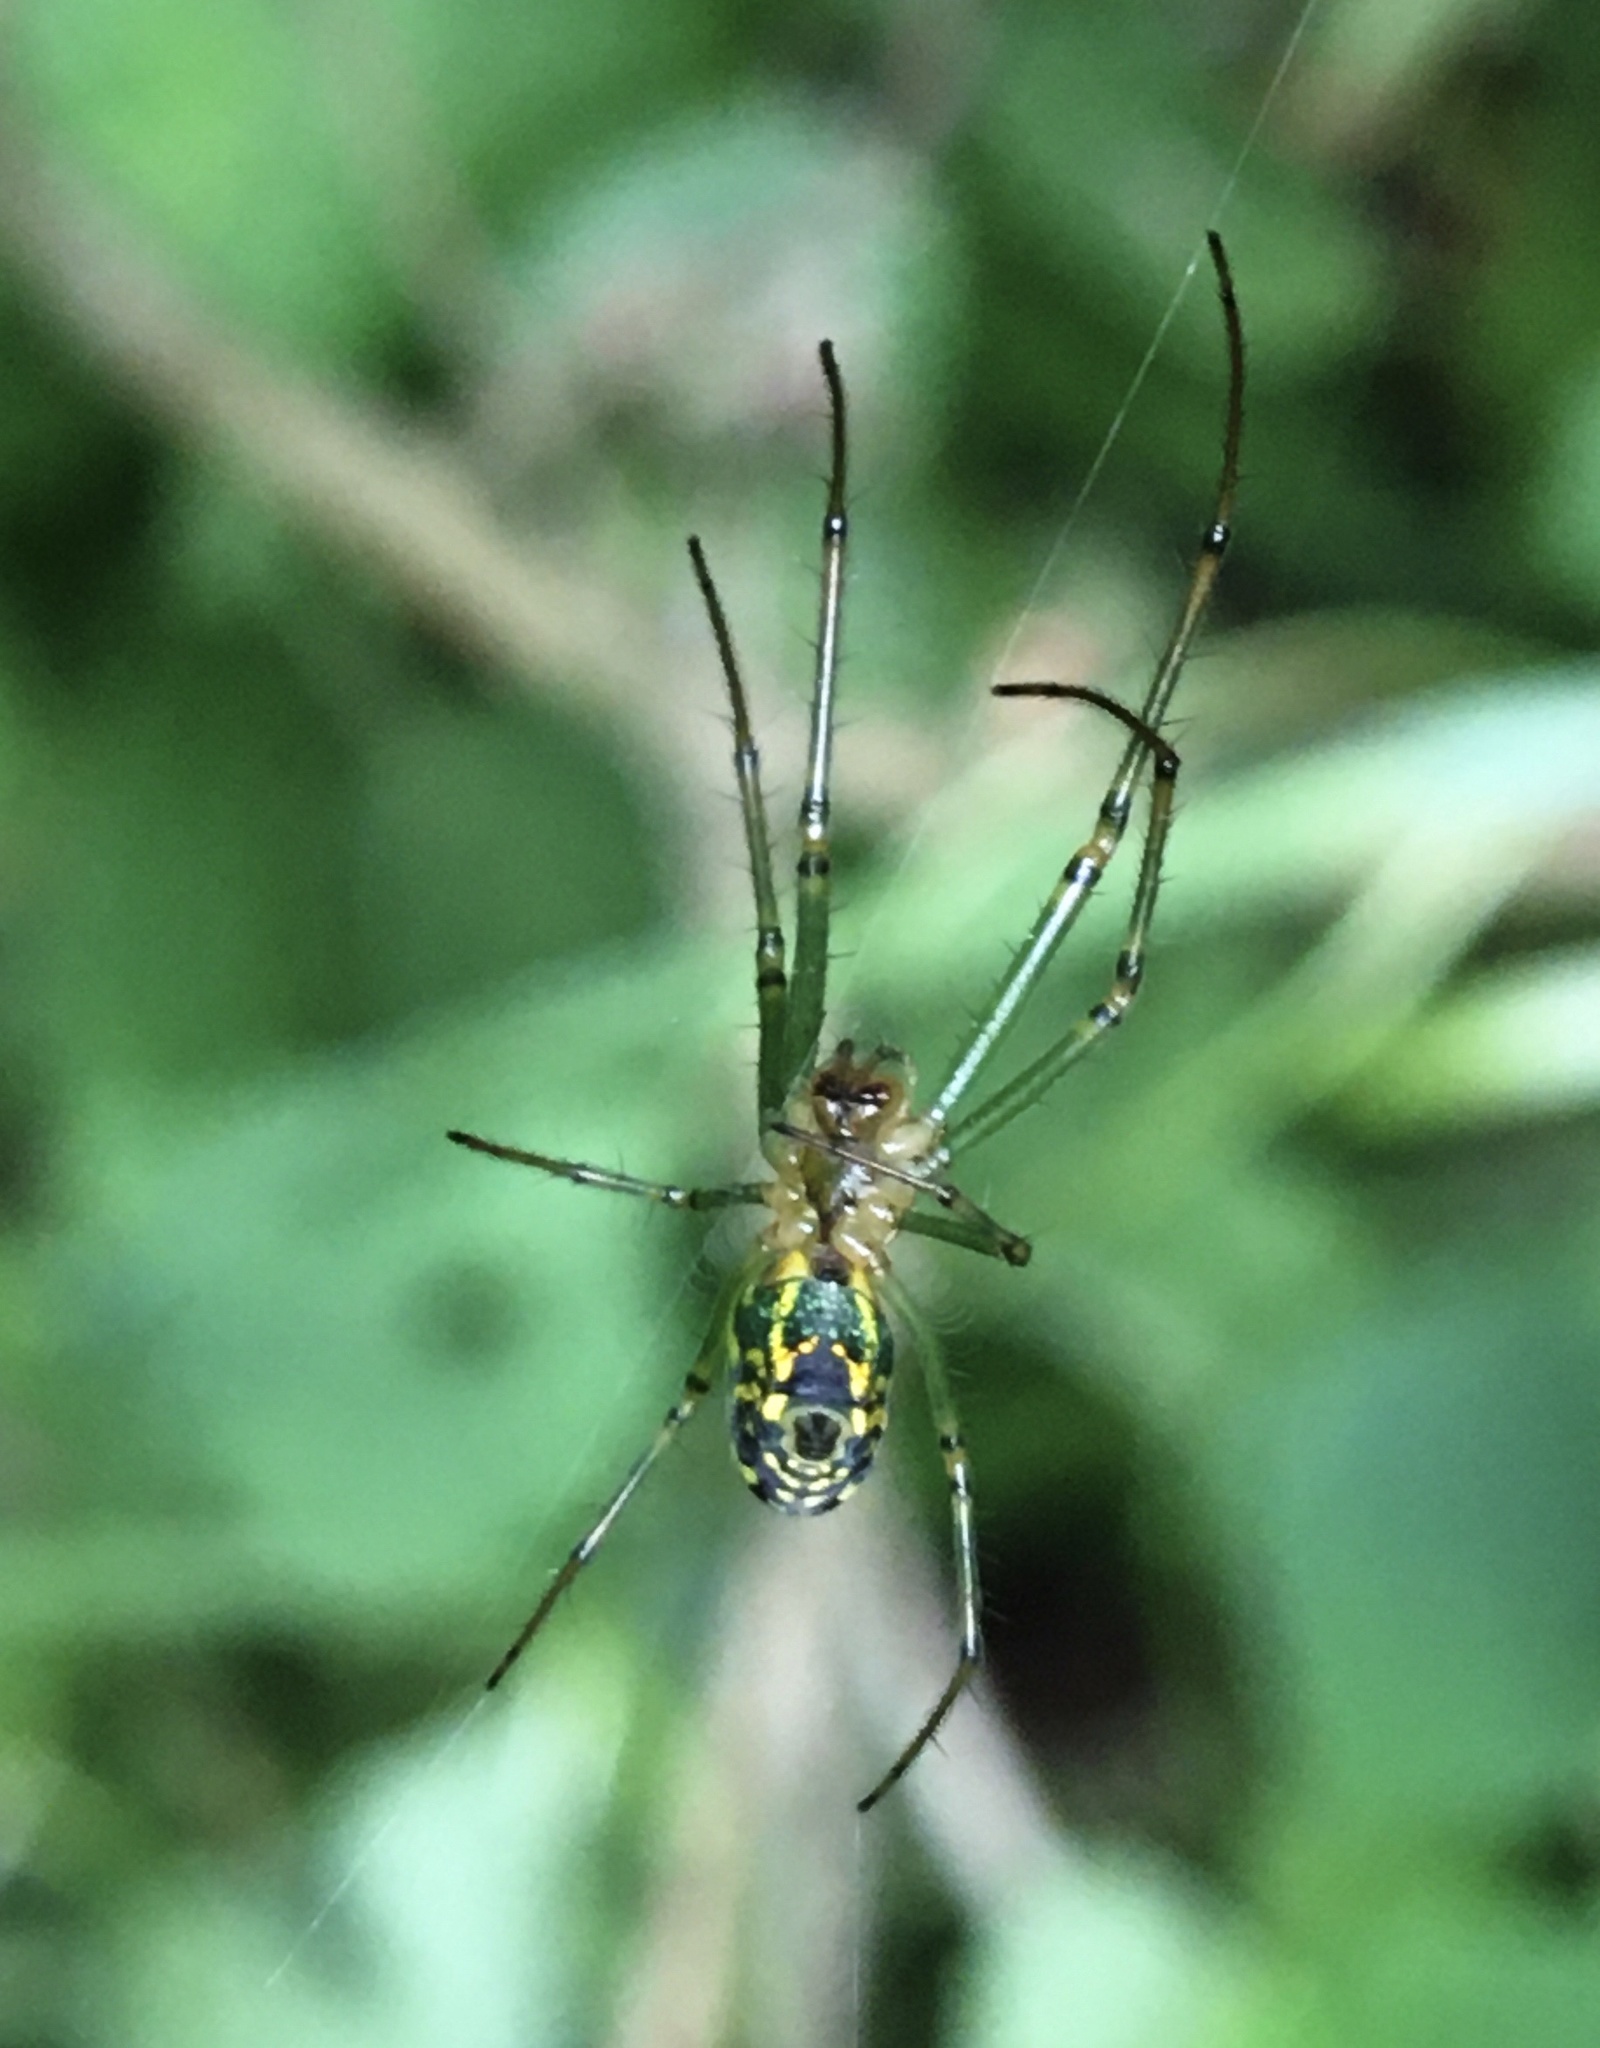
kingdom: Animalia
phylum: Arthropoda
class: Arachnida
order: Araneae
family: Tetragnathidae
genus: Leucauge
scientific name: Leucauge venusta
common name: Longjawed orb weavers
